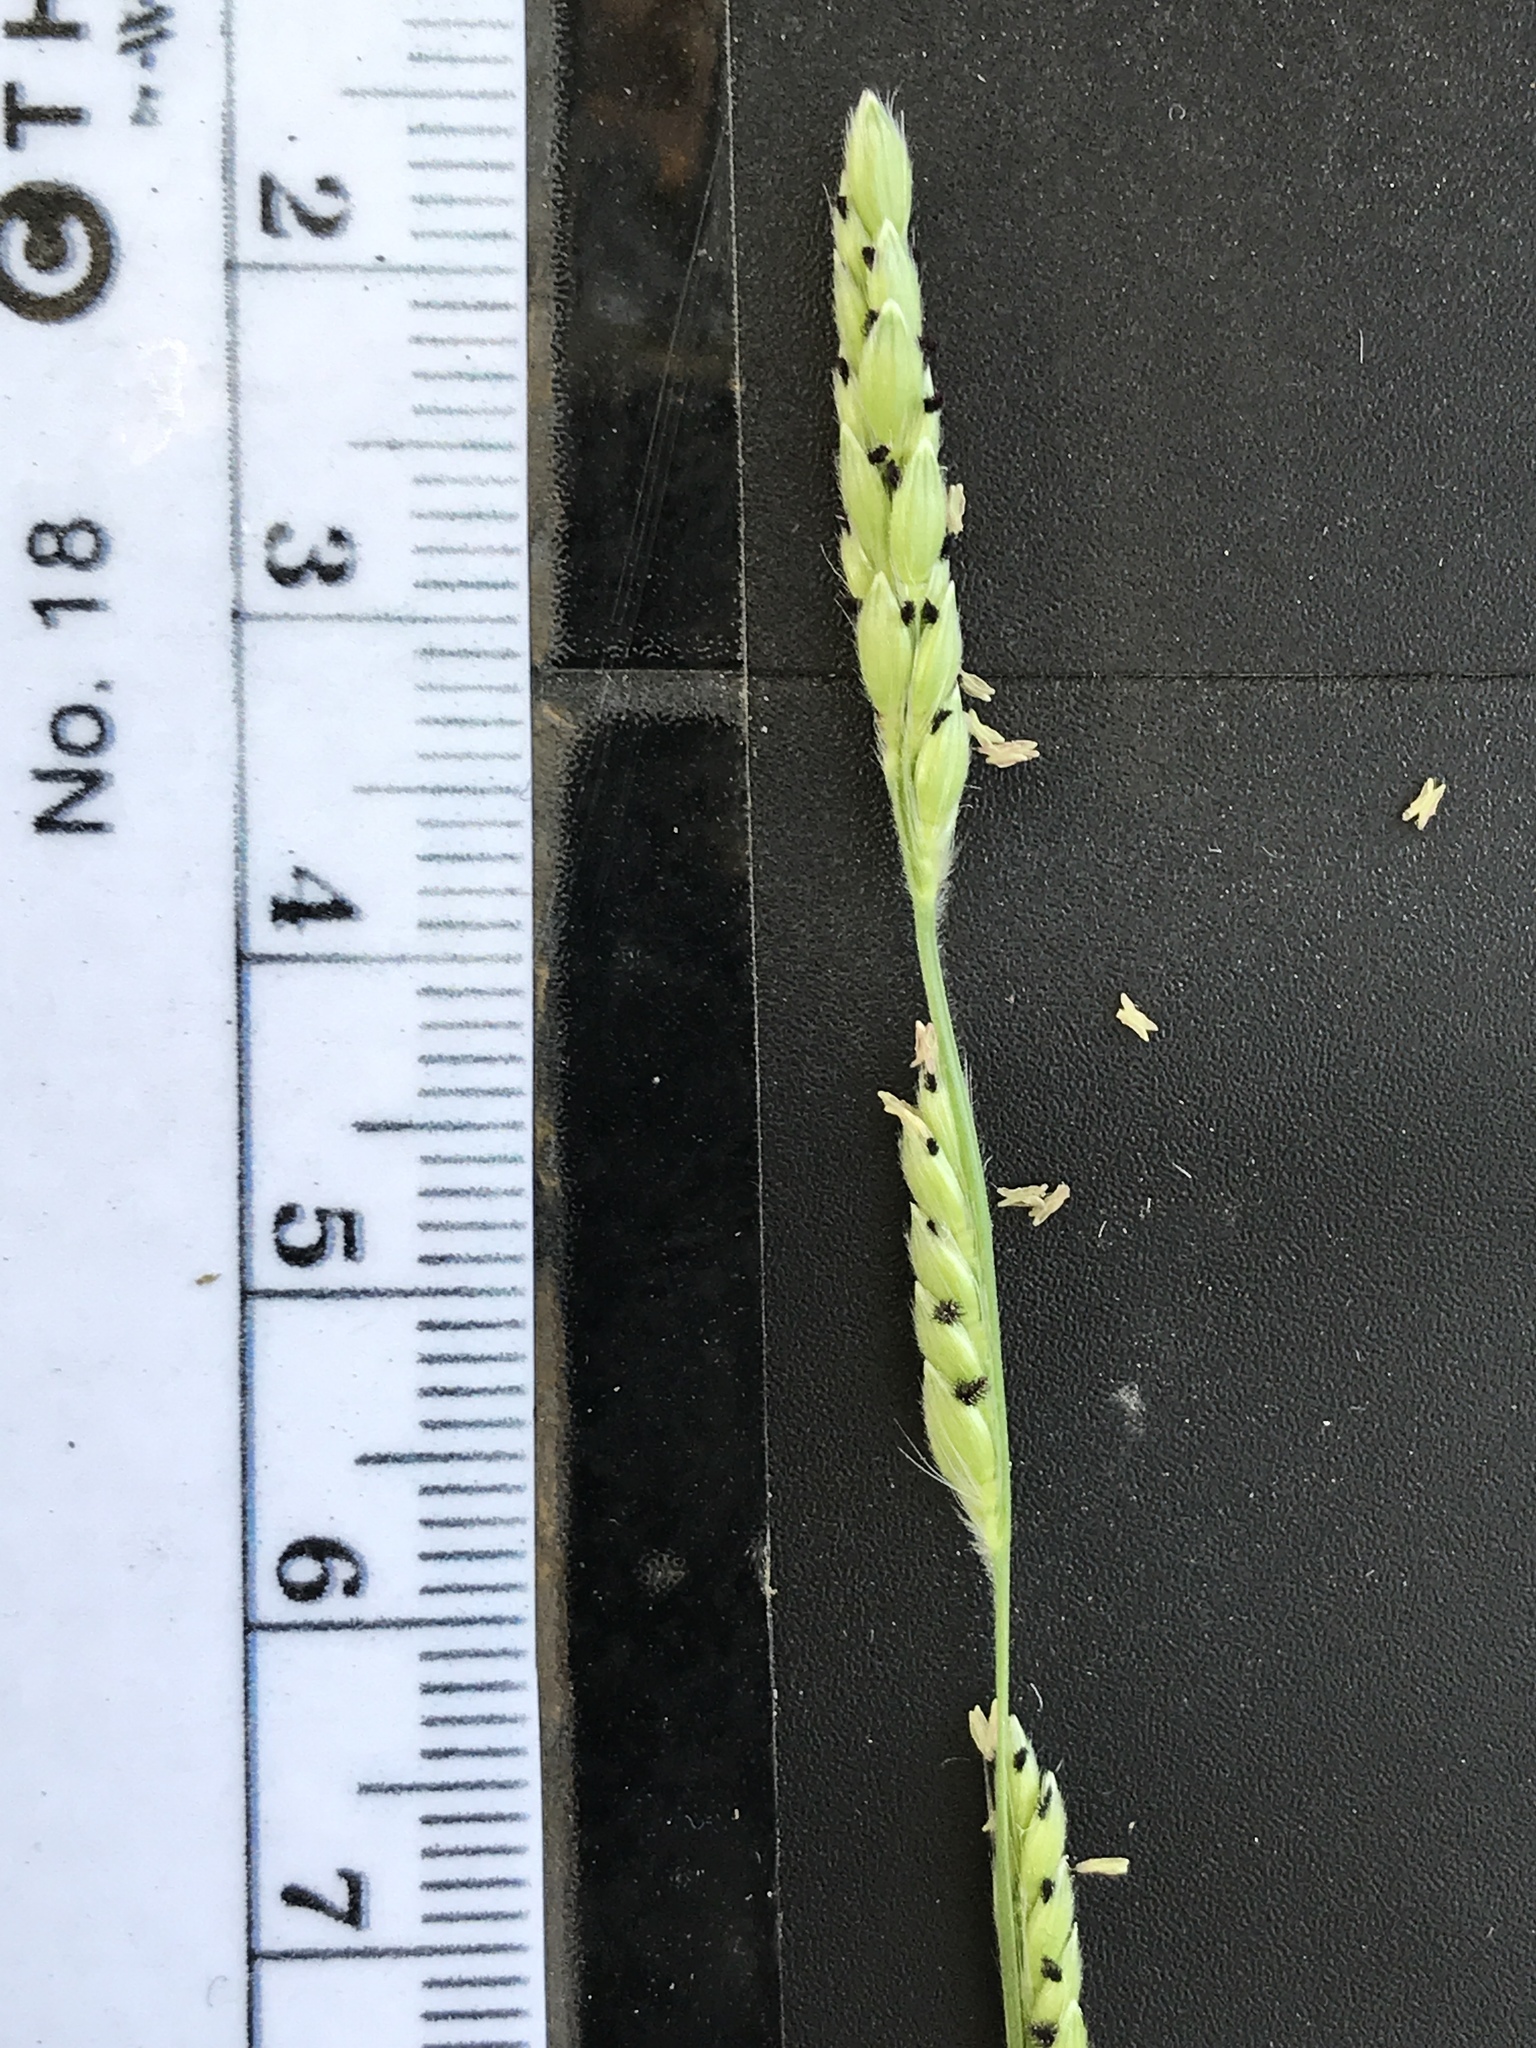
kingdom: Plantae
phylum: Tracheophyta
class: Liliopsida
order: Poales
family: Poaceae
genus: Eriochloa
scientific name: Eriochloa sericea
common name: Texas cup grass
